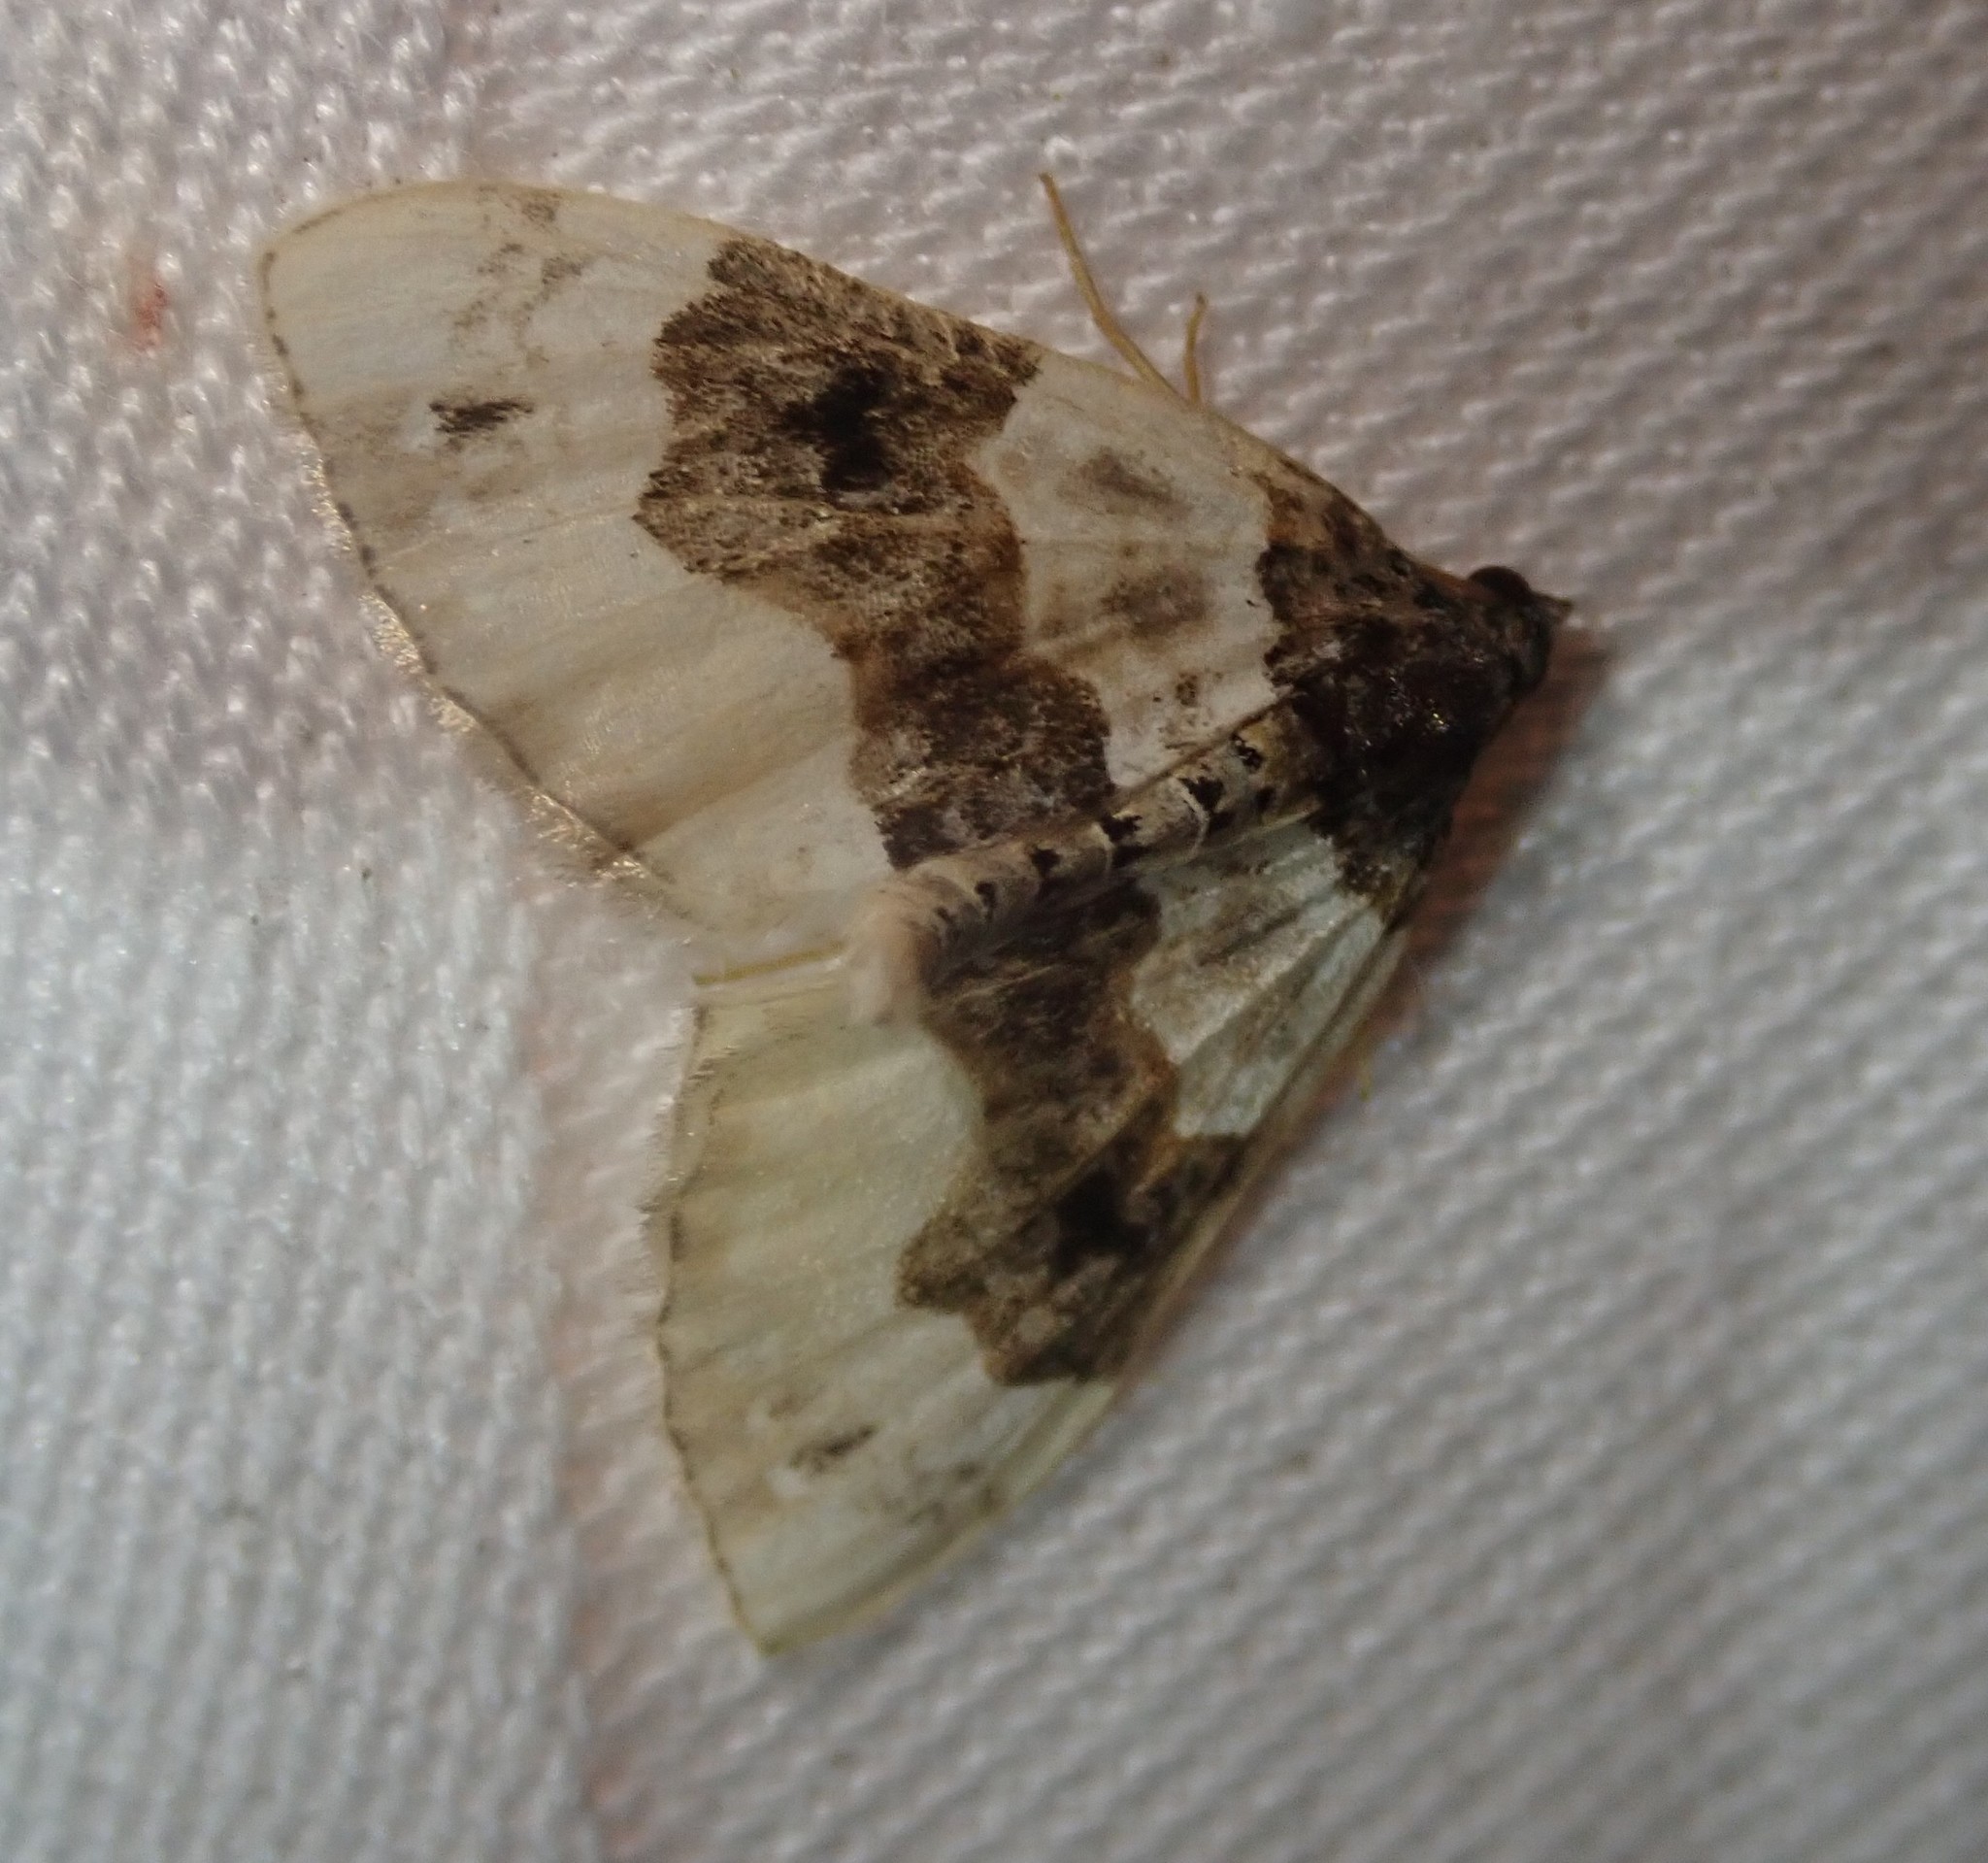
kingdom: Animalia
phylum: Arthropoda
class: Insecta
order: Lepidoptera
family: Geometridae
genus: Cosmorhoe
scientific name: Cosmorhoe ocellata
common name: Purple bar
